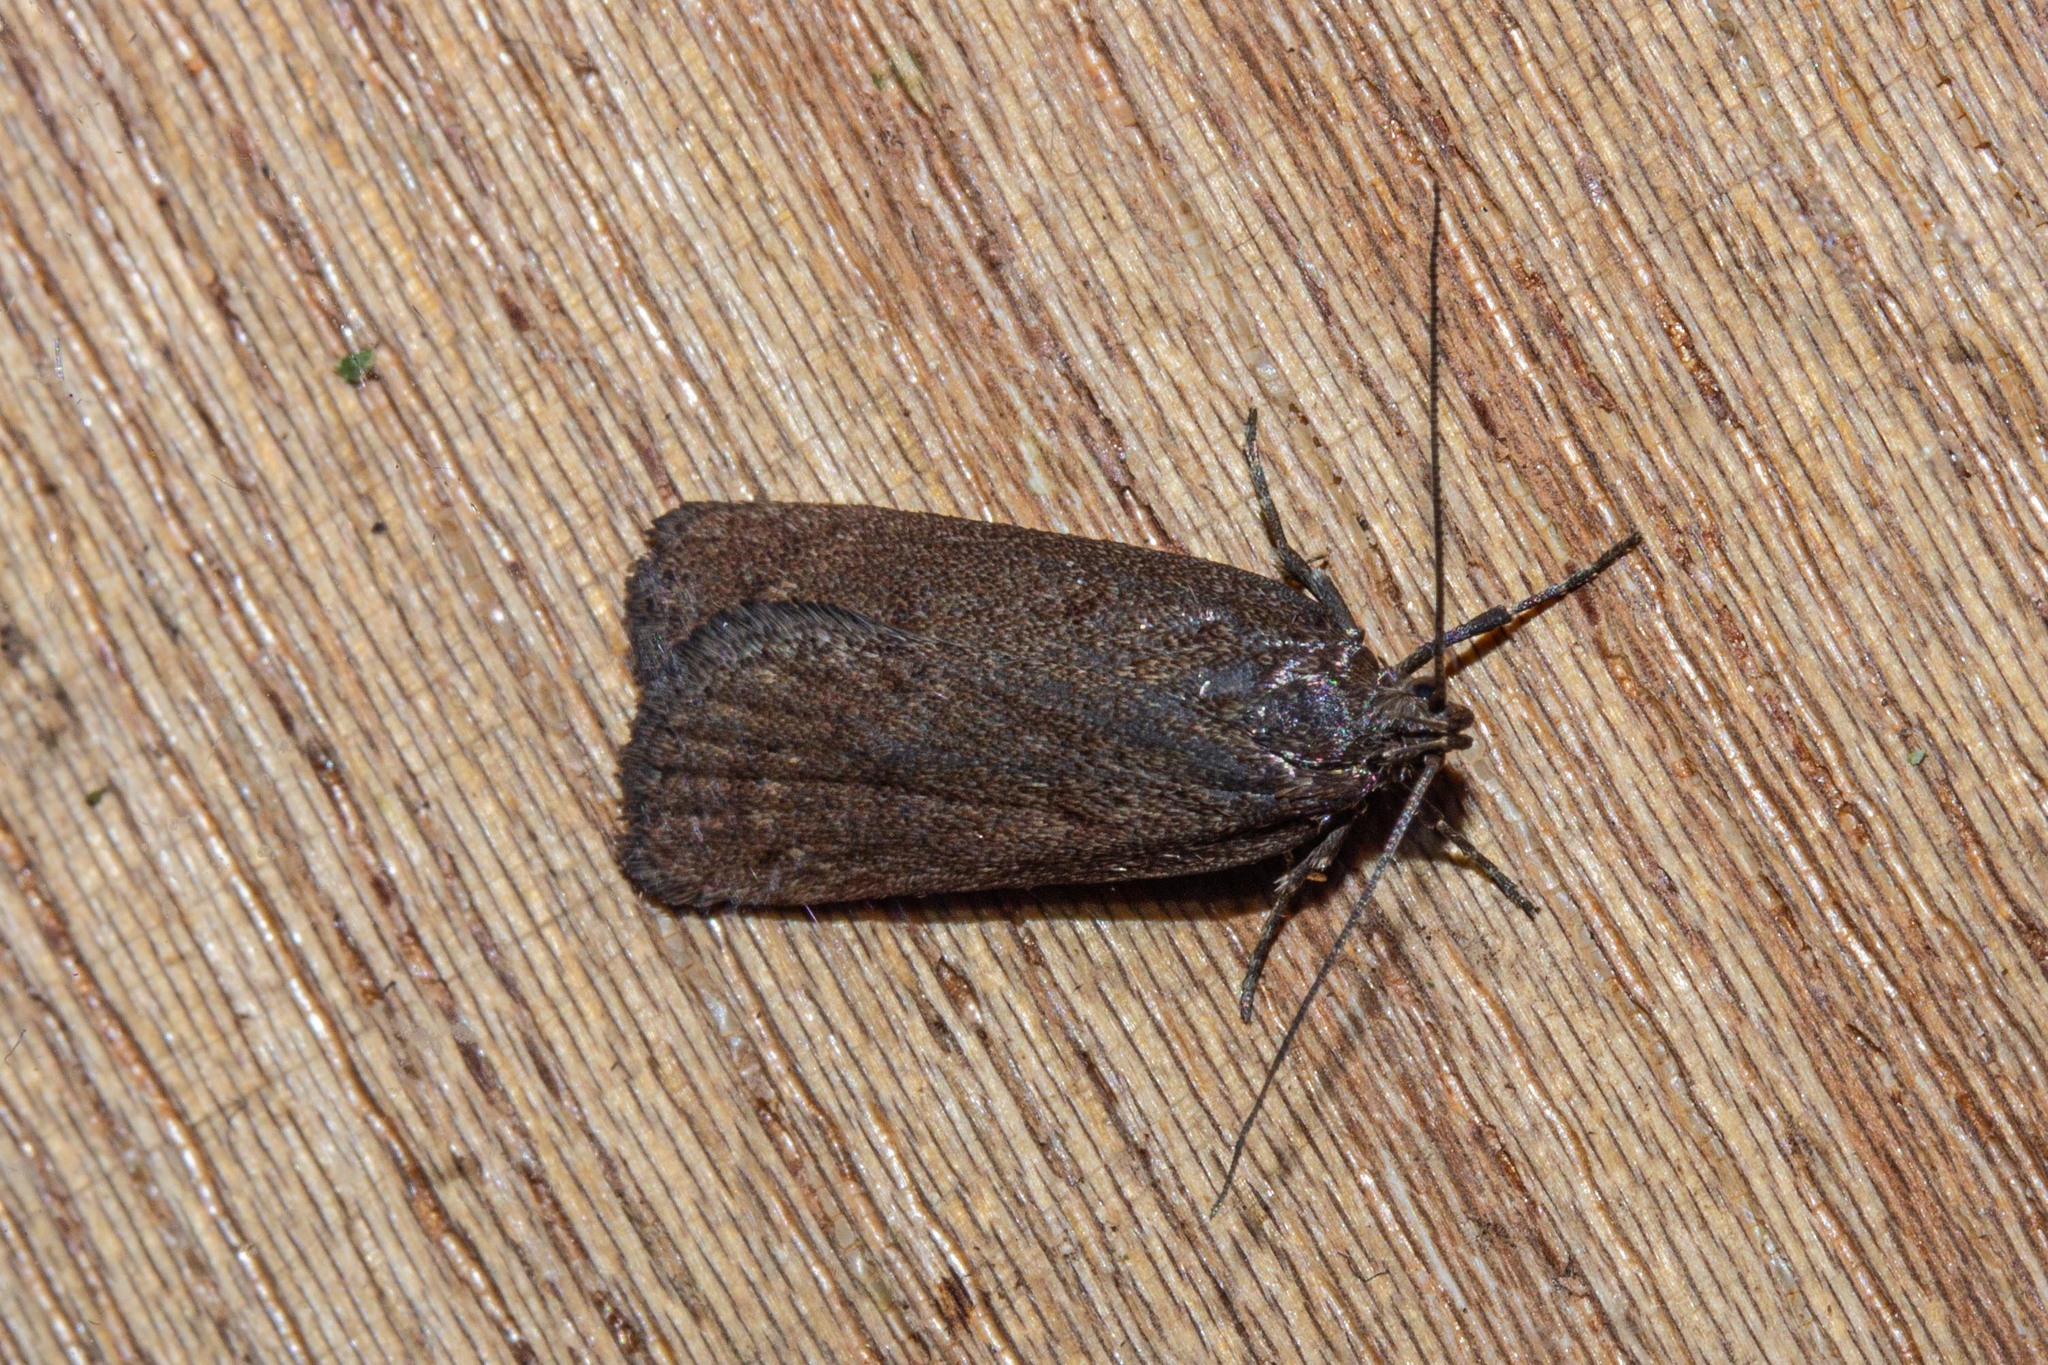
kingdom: Animalia
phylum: Arthropoda
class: Insecta
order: Lepidoptera
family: Depressariidae
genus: Phaeosaces
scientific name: Phaeosaces apocrypta
